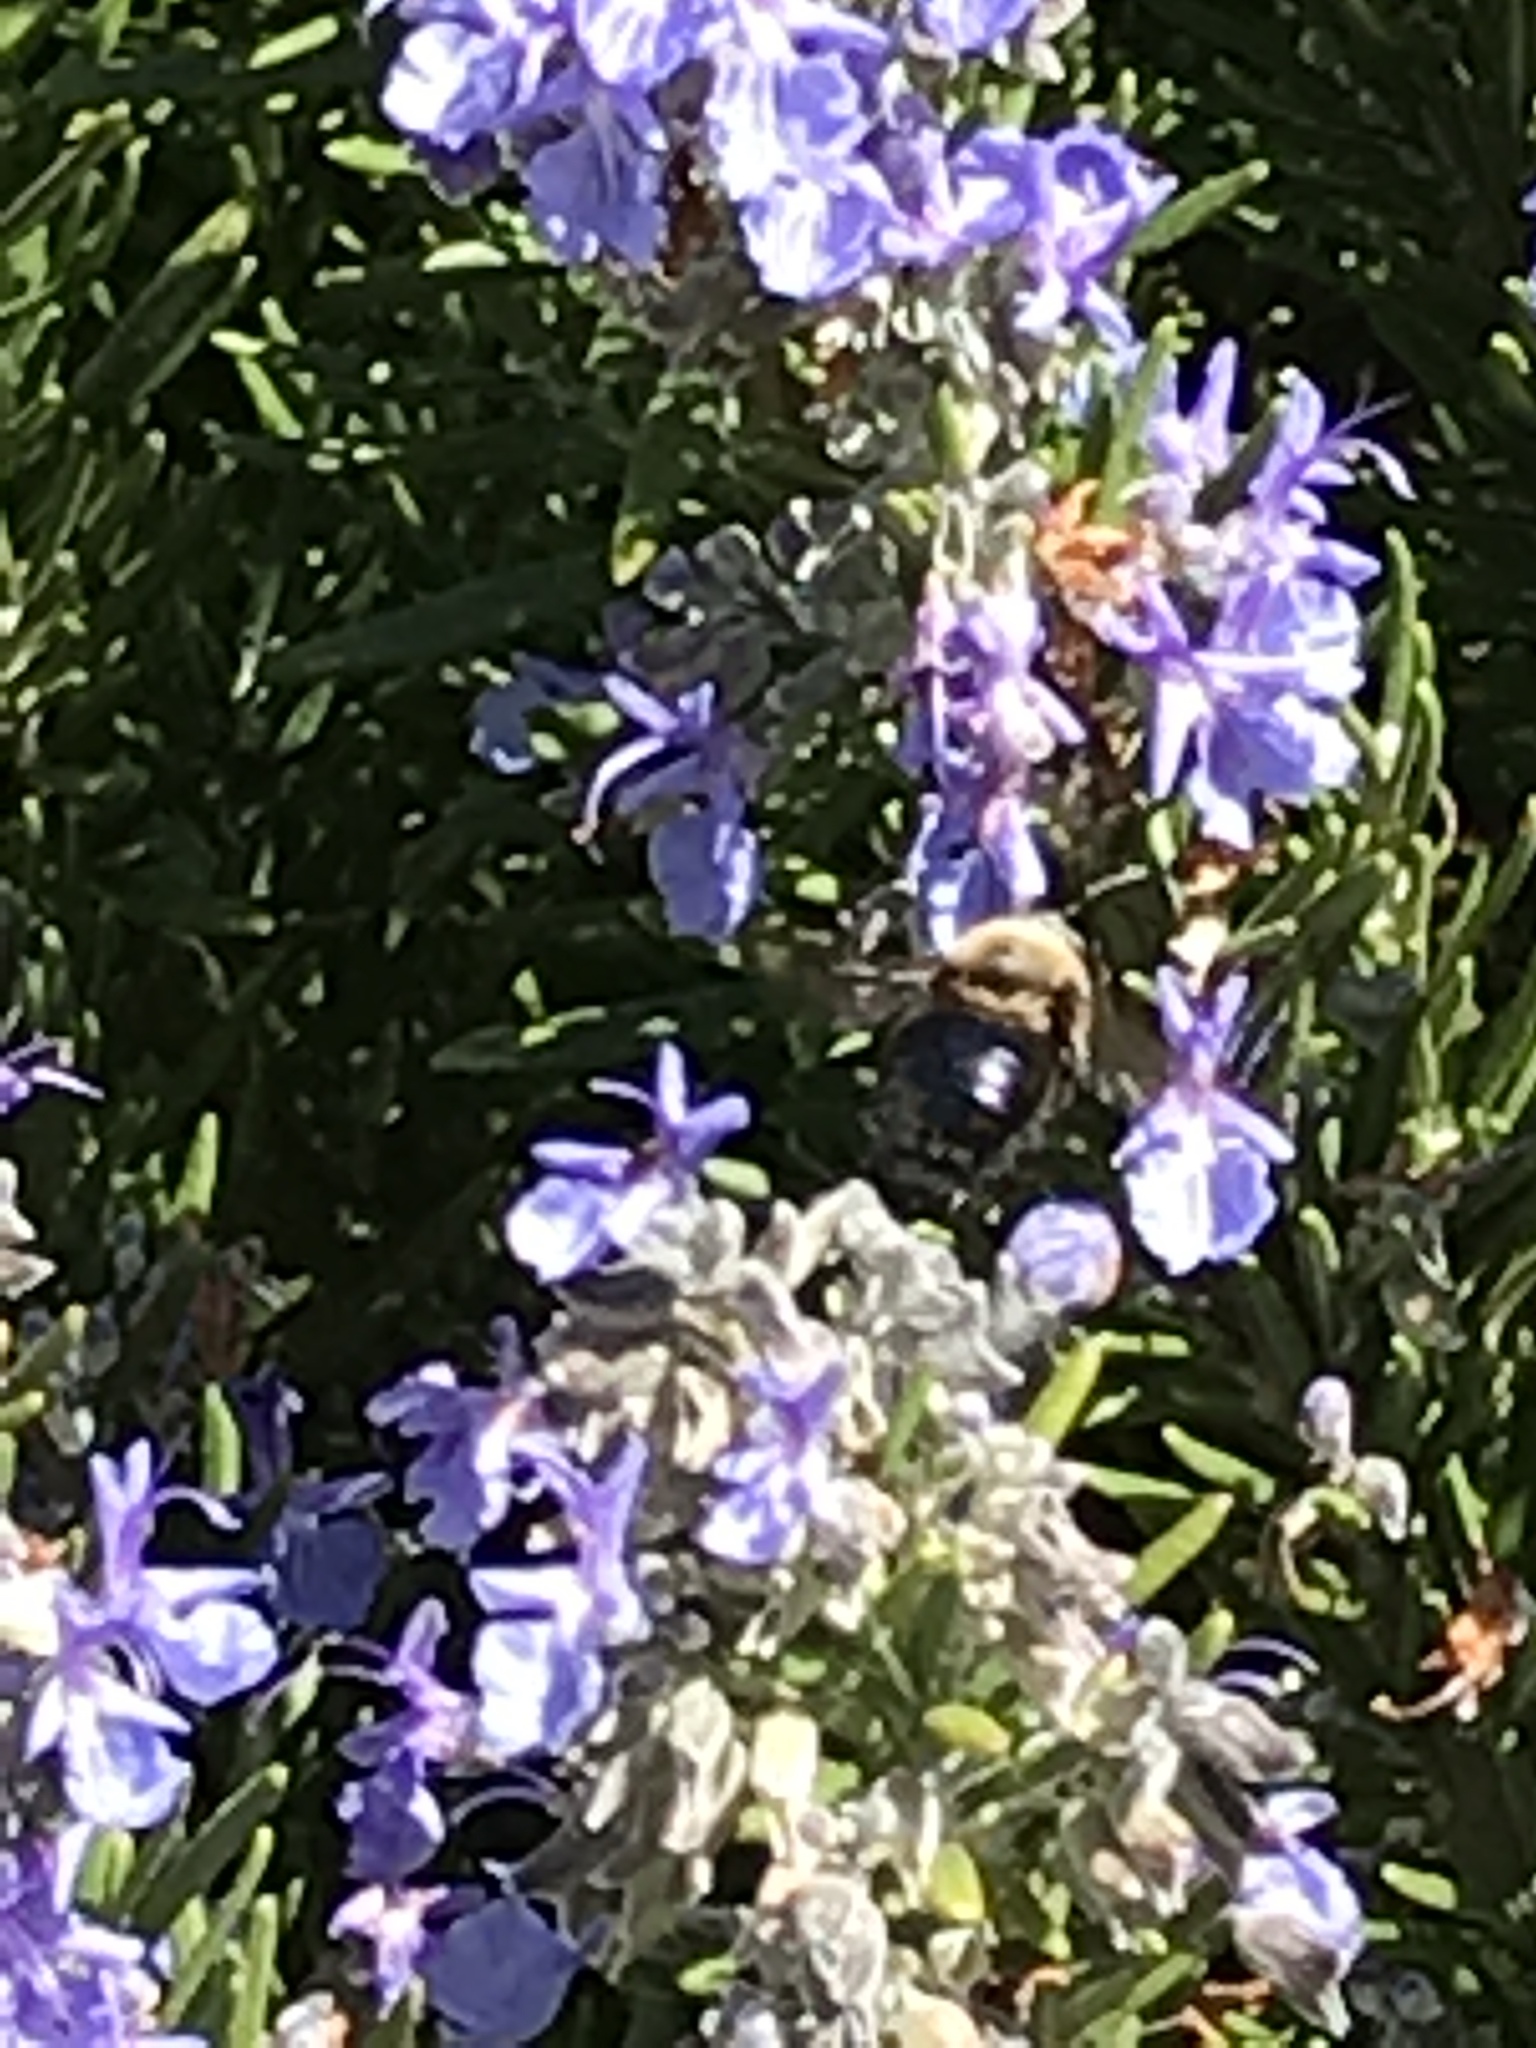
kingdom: Animalia
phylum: Arthropoda
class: Insecta
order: Hymenoptera
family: Apidae
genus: Xylocopa
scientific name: Xylocopa tabaniformis
